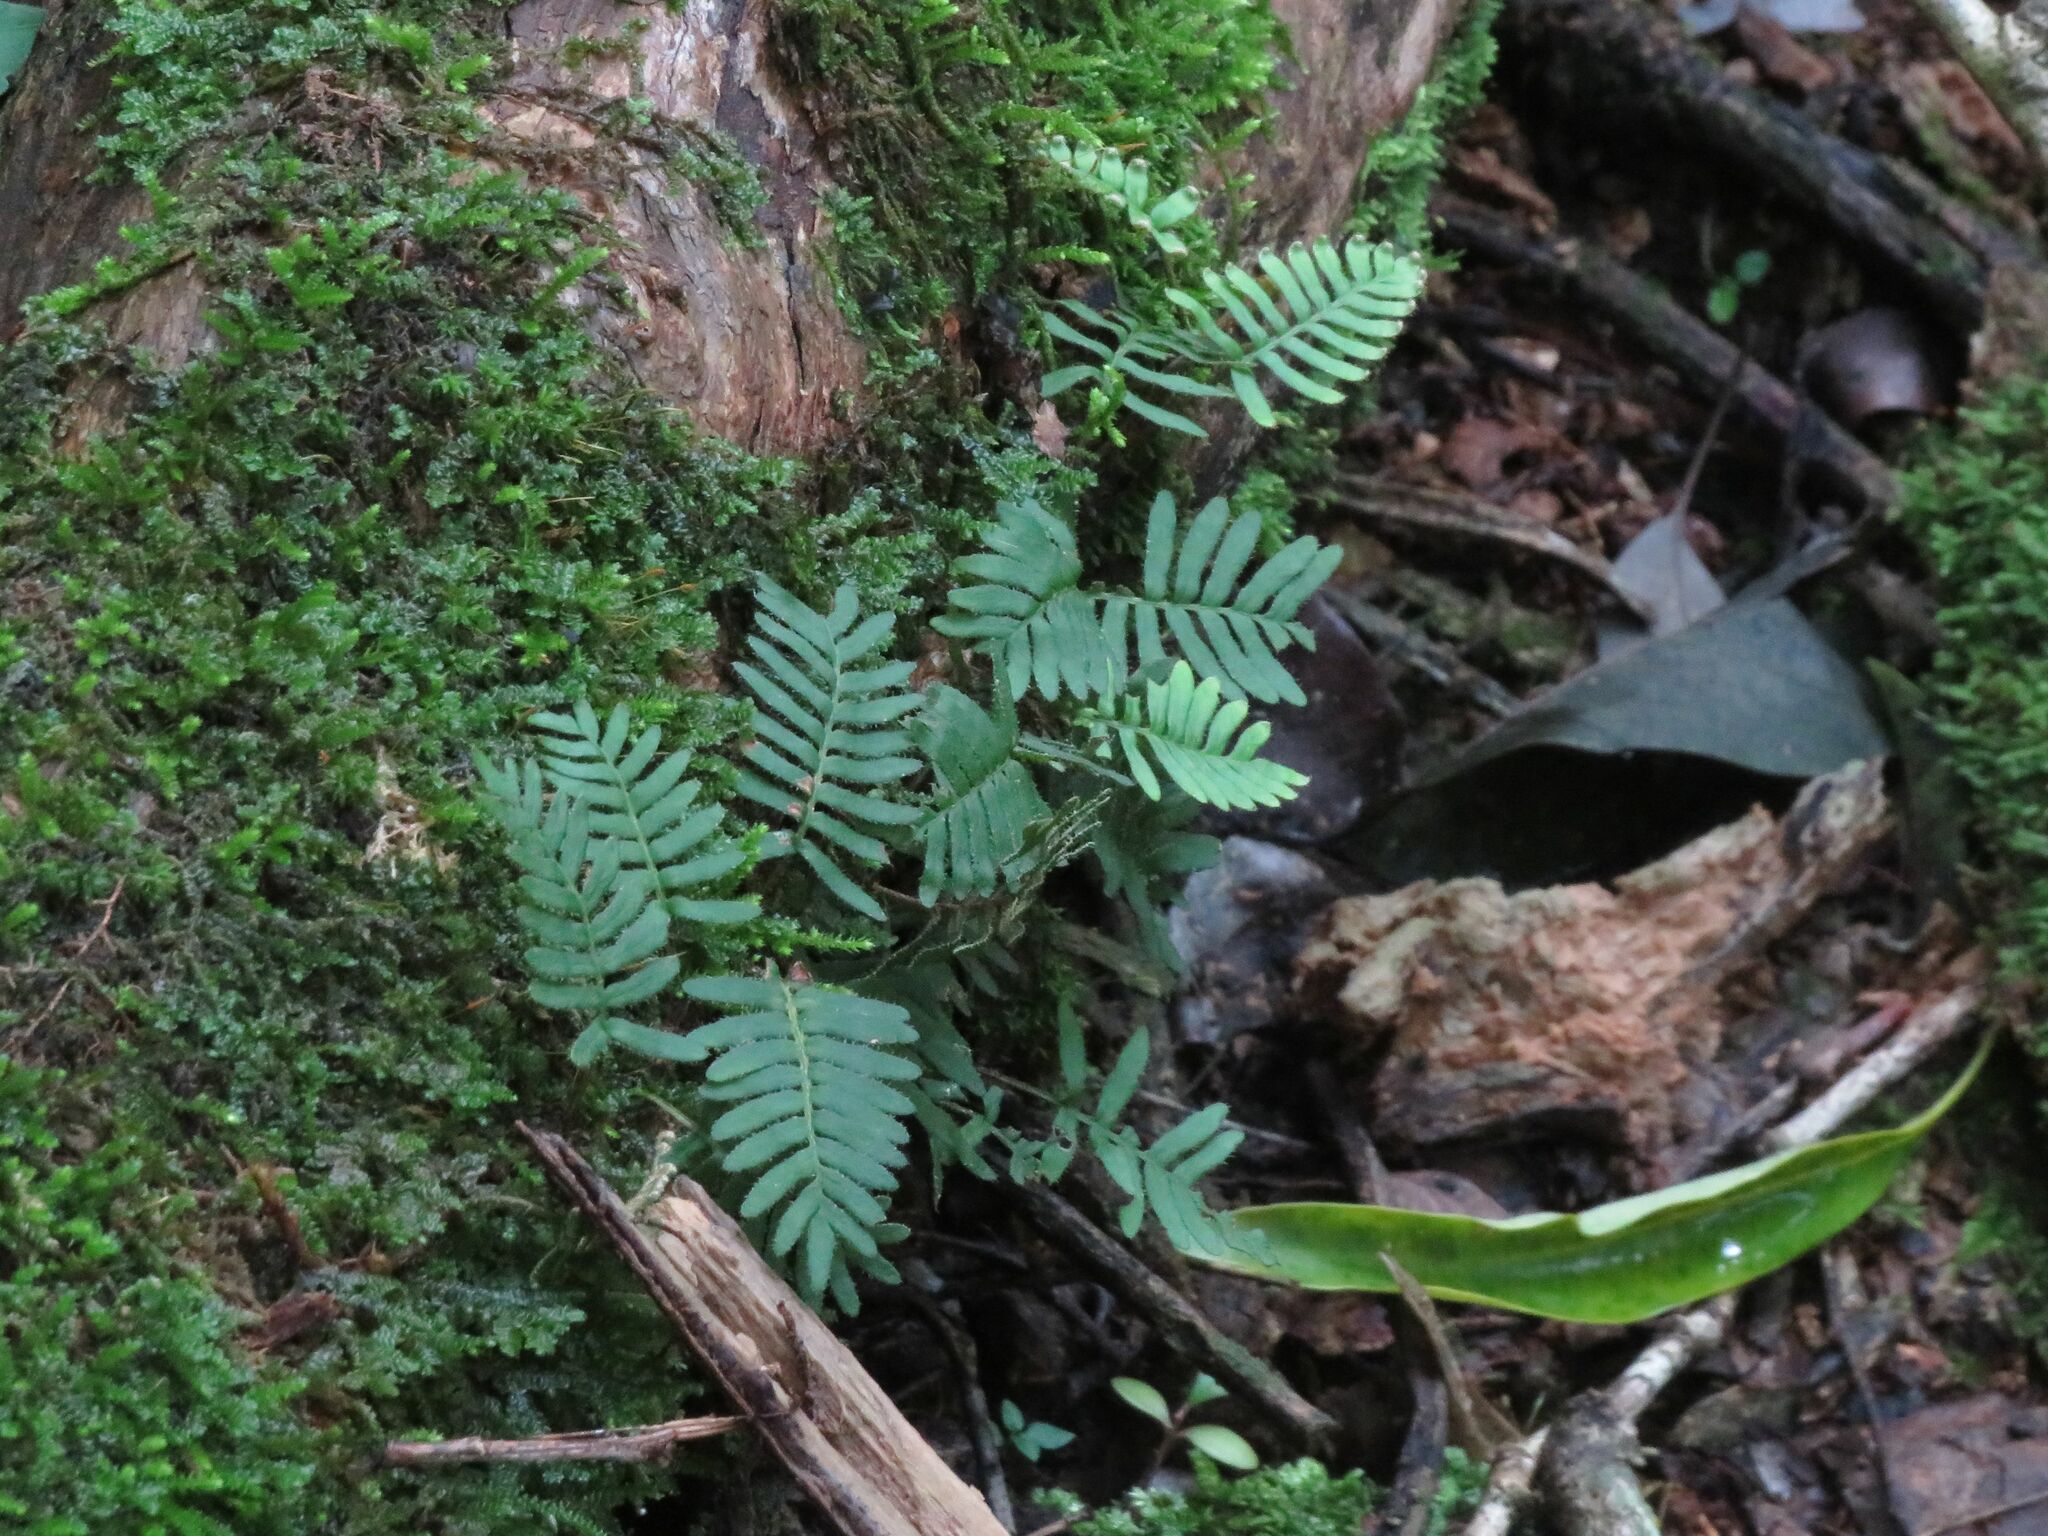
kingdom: Plantae
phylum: Tracheophyta
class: Polypodiopsida
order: Polypodiales
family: Polypodiaceae
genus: Pleopeltis
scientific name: Pleopeltis minima
